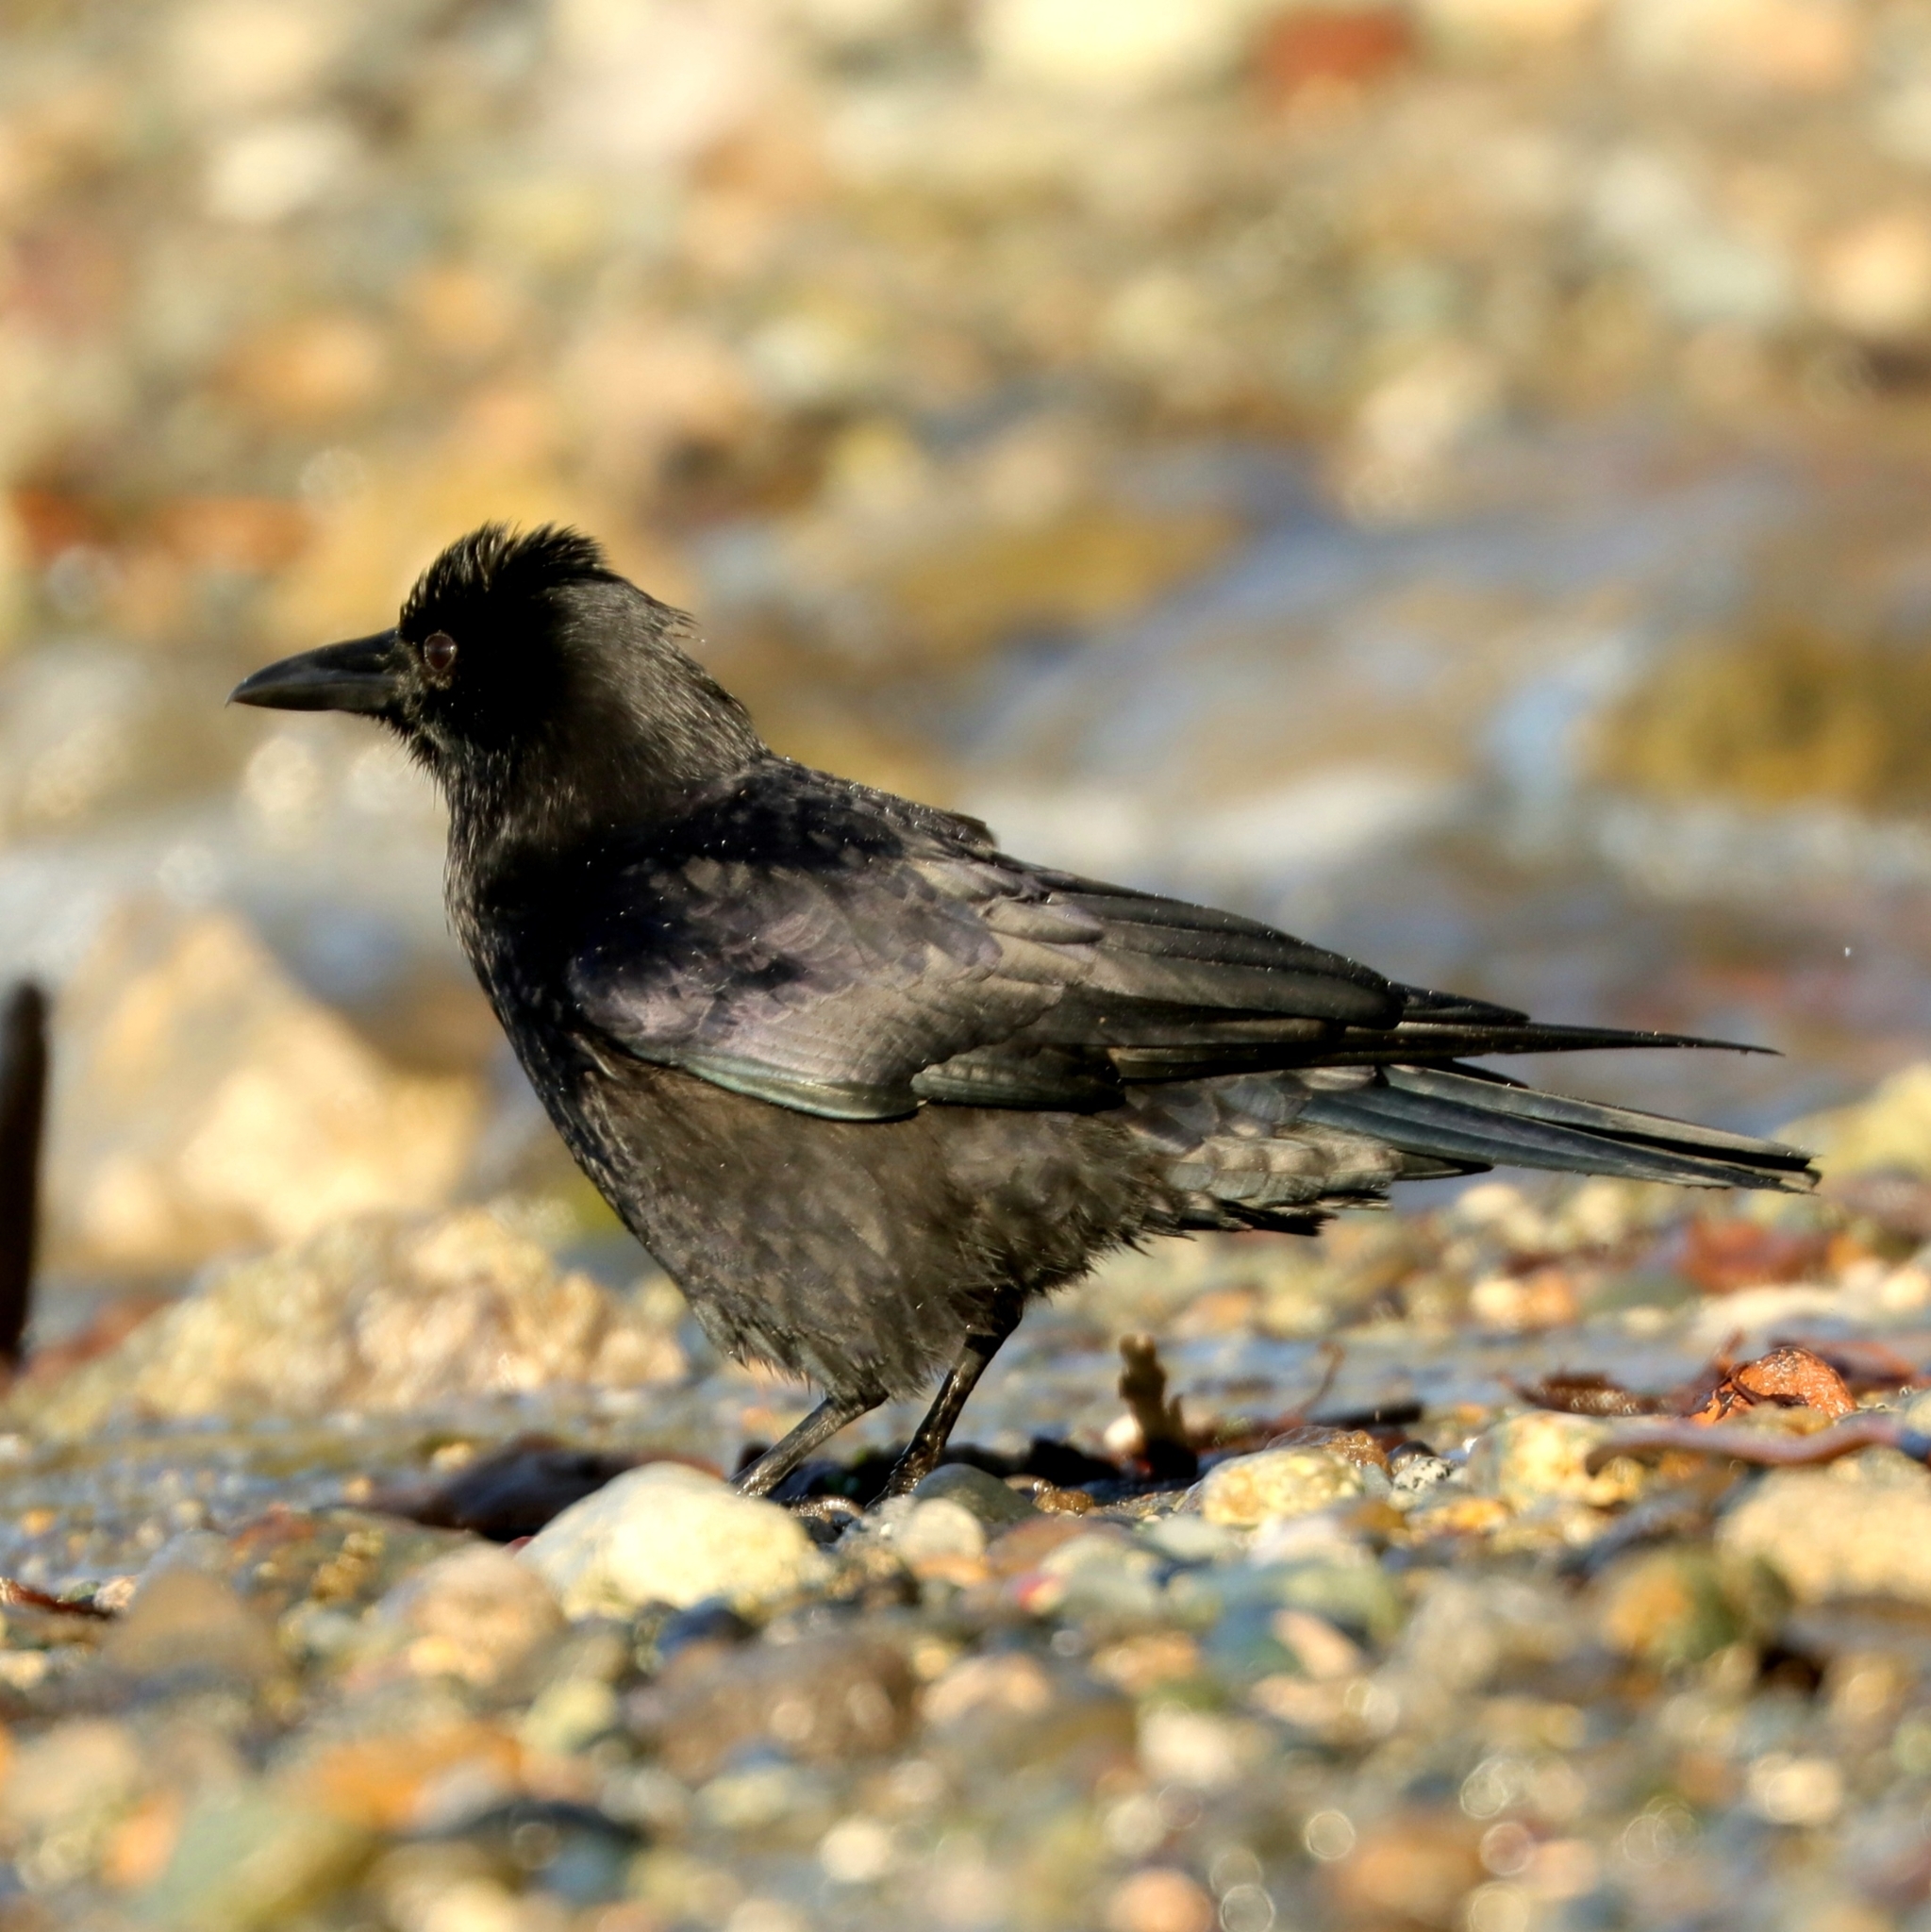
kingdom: Animalia
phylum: Chordata
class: Aves
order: Passeriformes
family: Corvidae
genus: Corvus
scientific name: Corvus brachyrhynchos
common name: American crow
